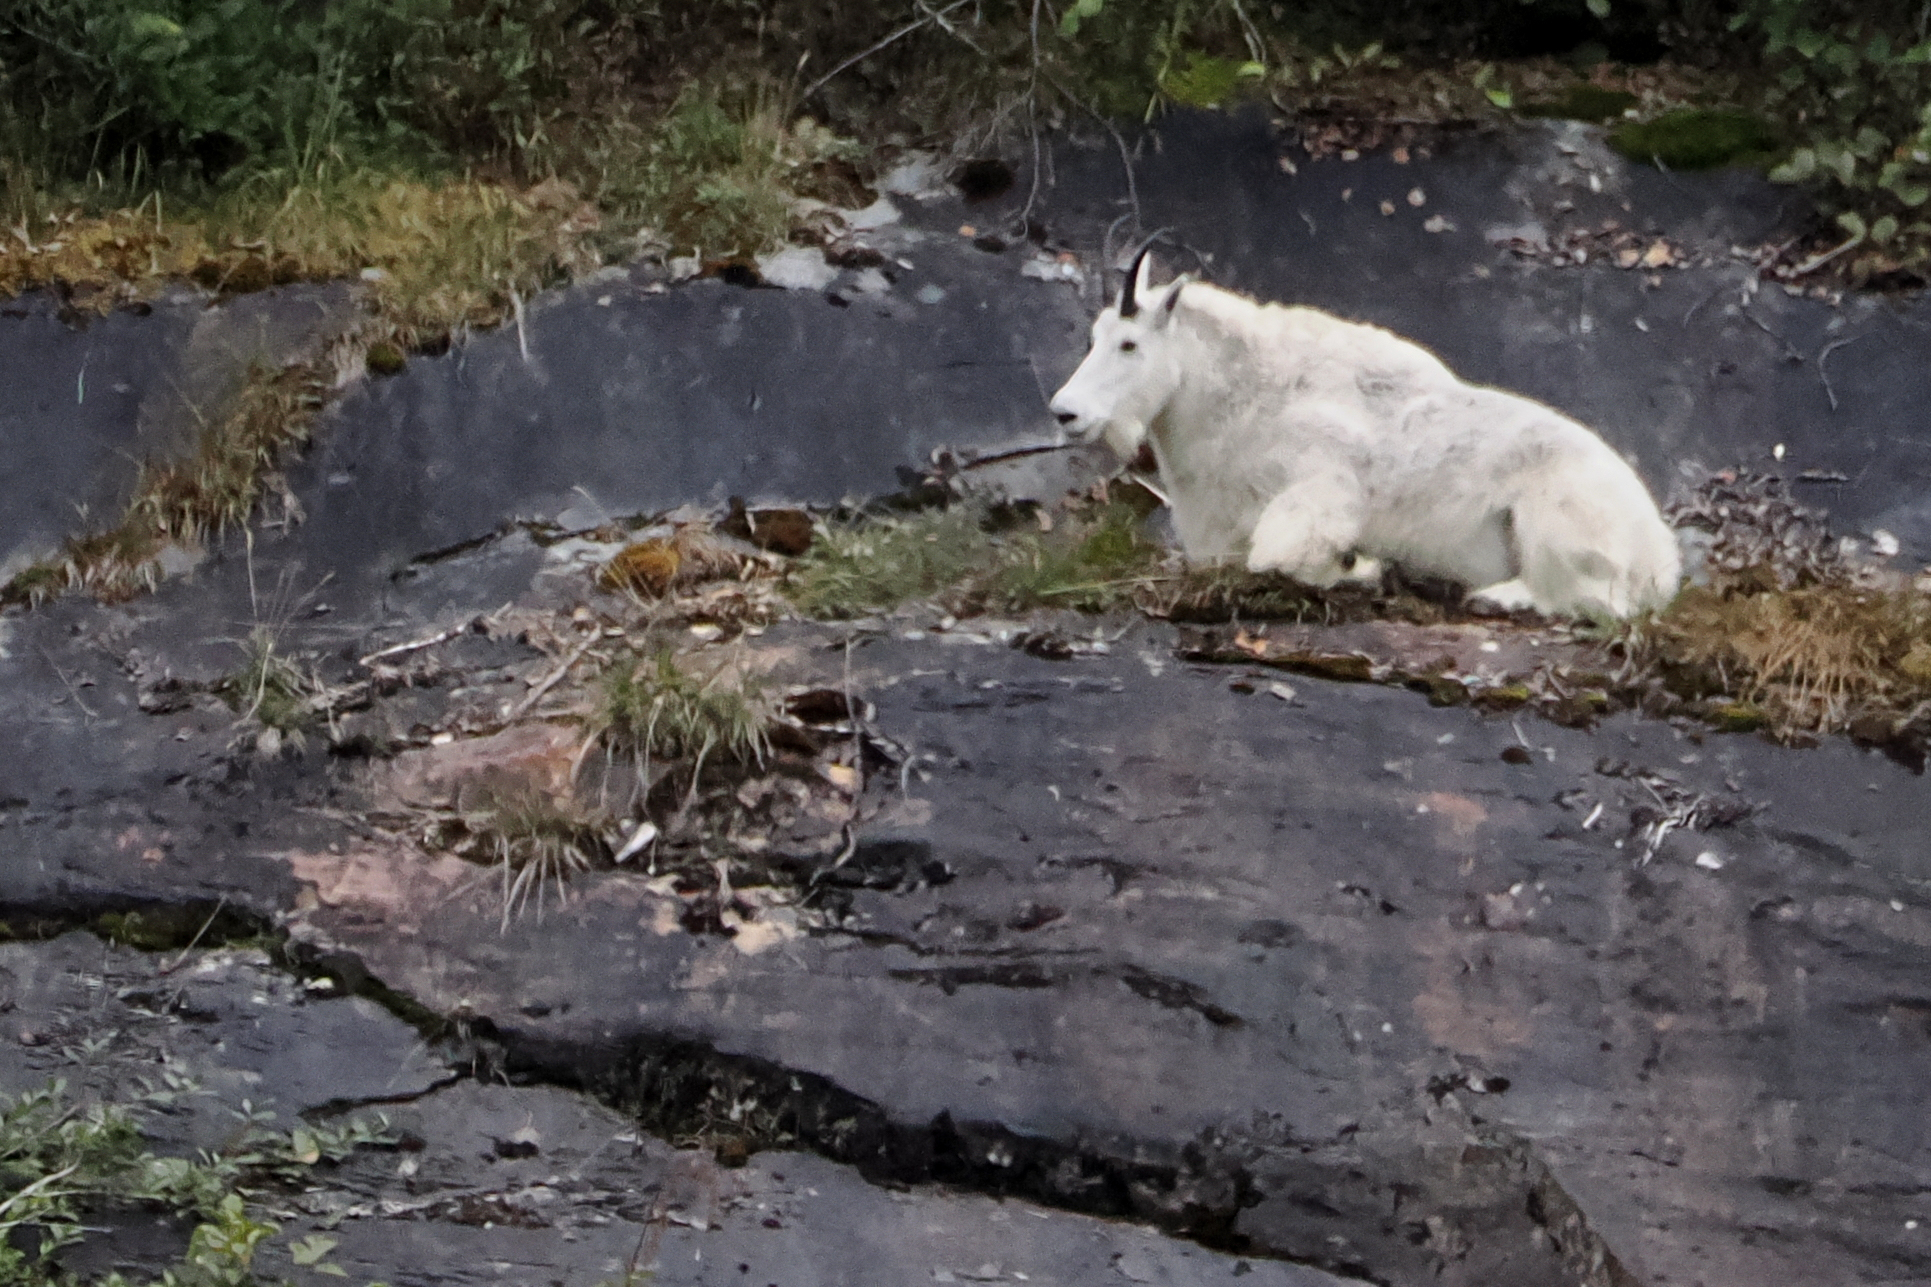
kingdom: Animalia
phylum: Chordata
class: Mammalia
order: Artiodactyla
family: Bovidae
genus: Oreamnos
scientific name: Oreamnos americanus
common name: Mountain goat
